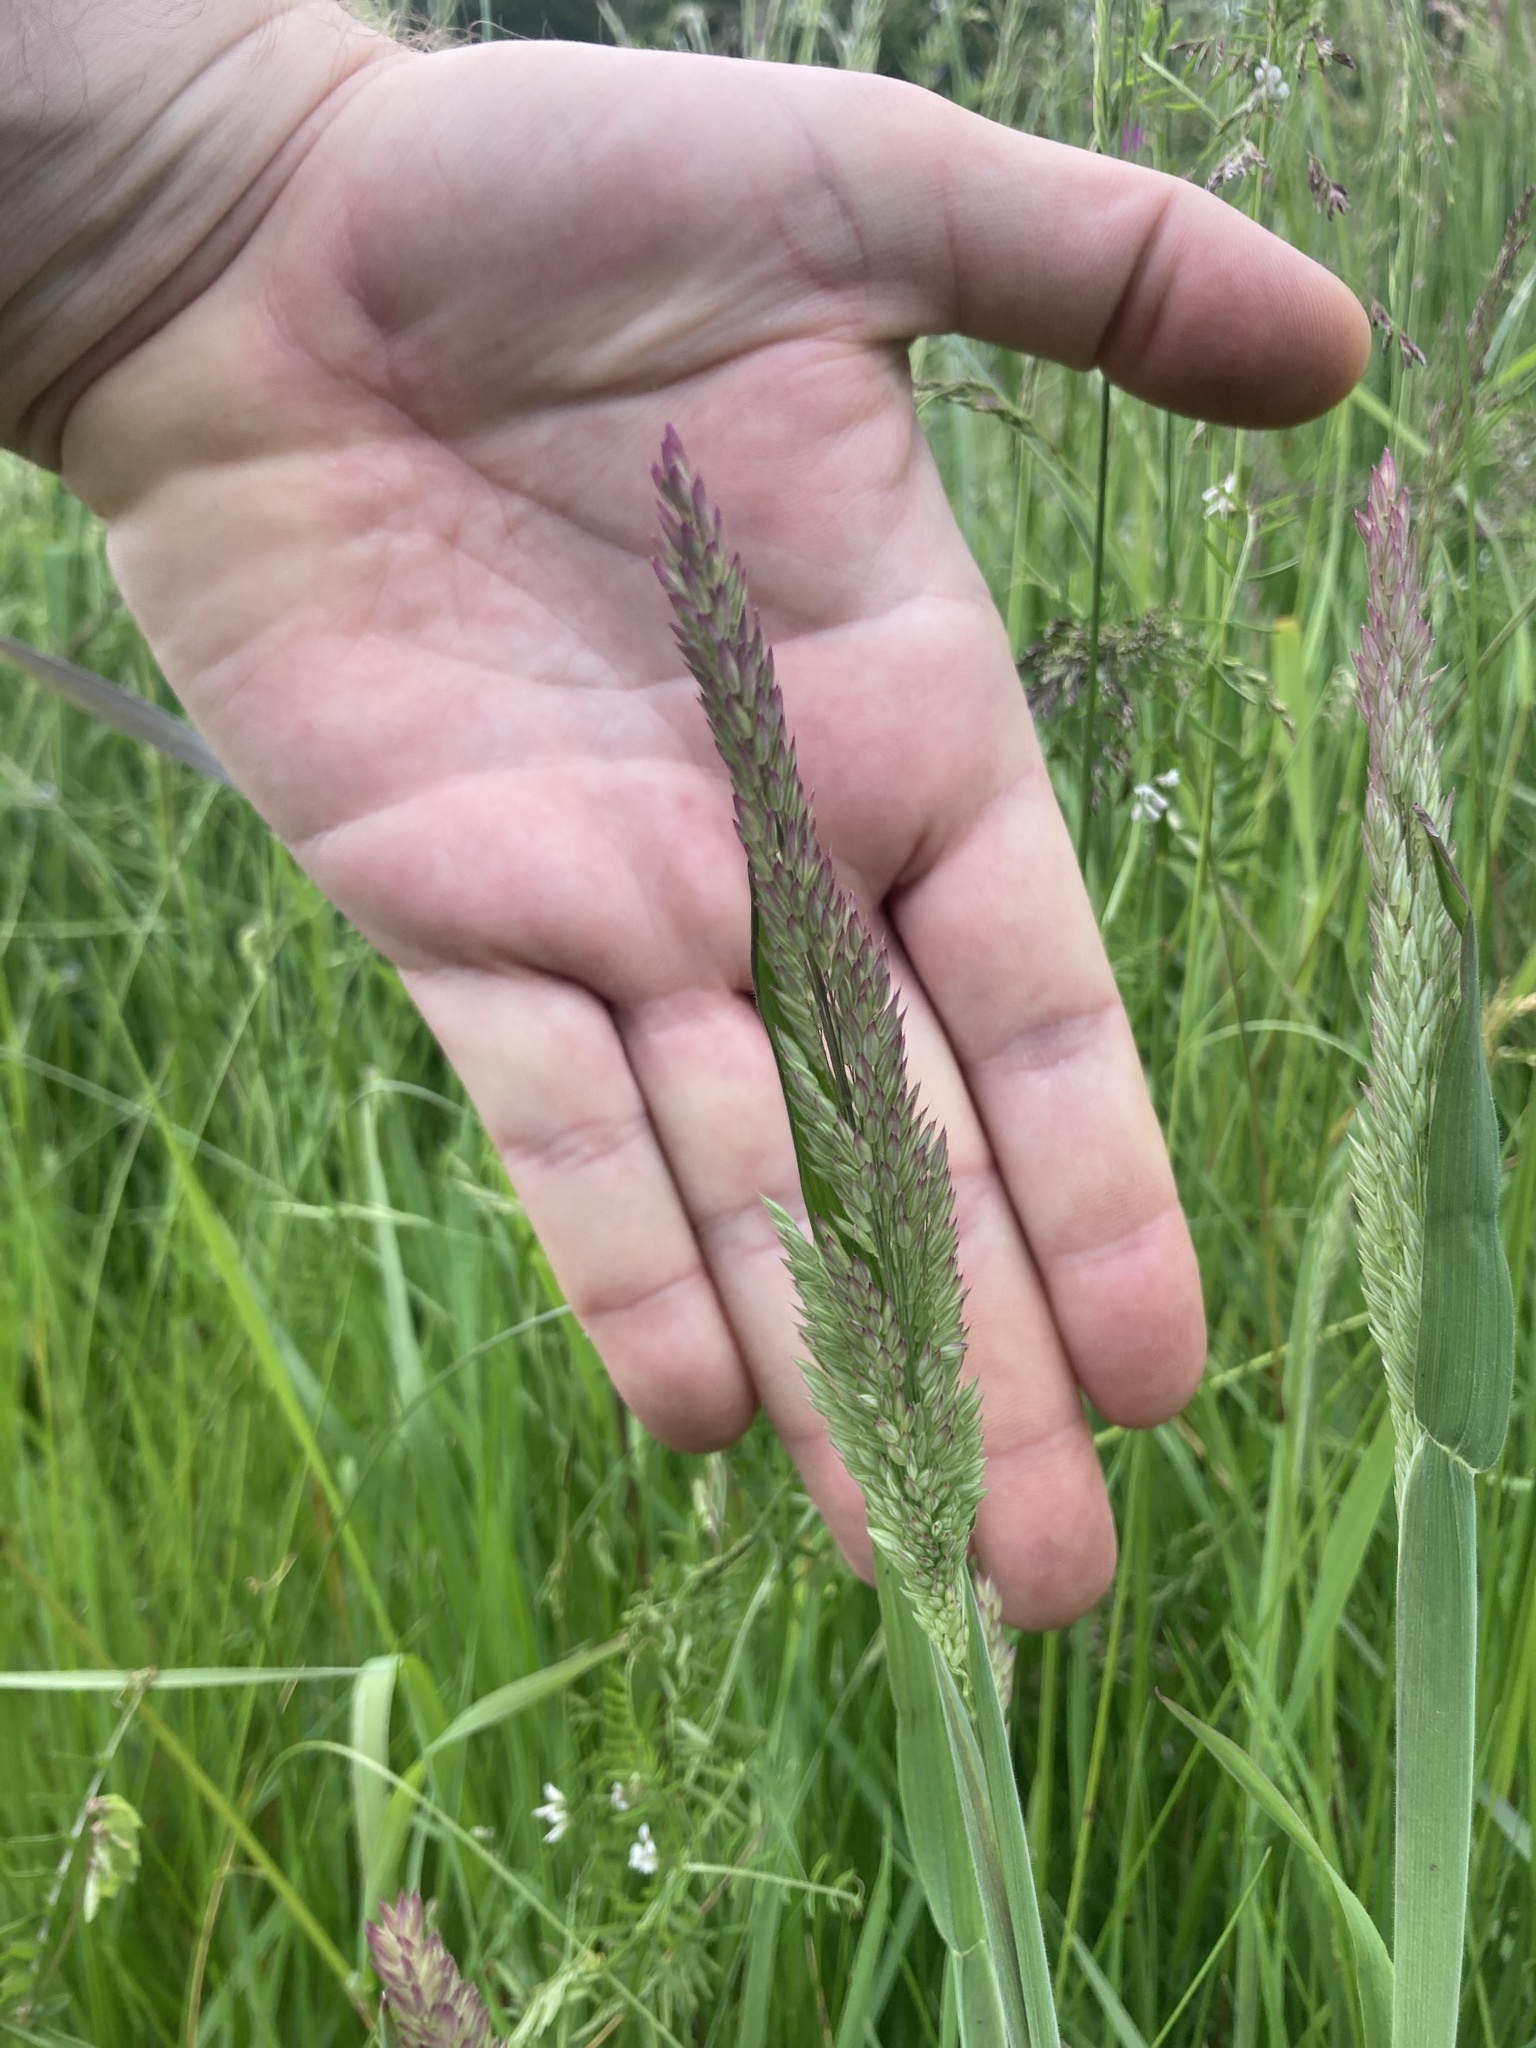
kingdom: Plantae
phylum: Tracheophyta
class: Liliopsida
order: Poales
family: Poaceae
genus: Holcus
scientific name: Holcus lanatus
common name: Yorkshire-fog
